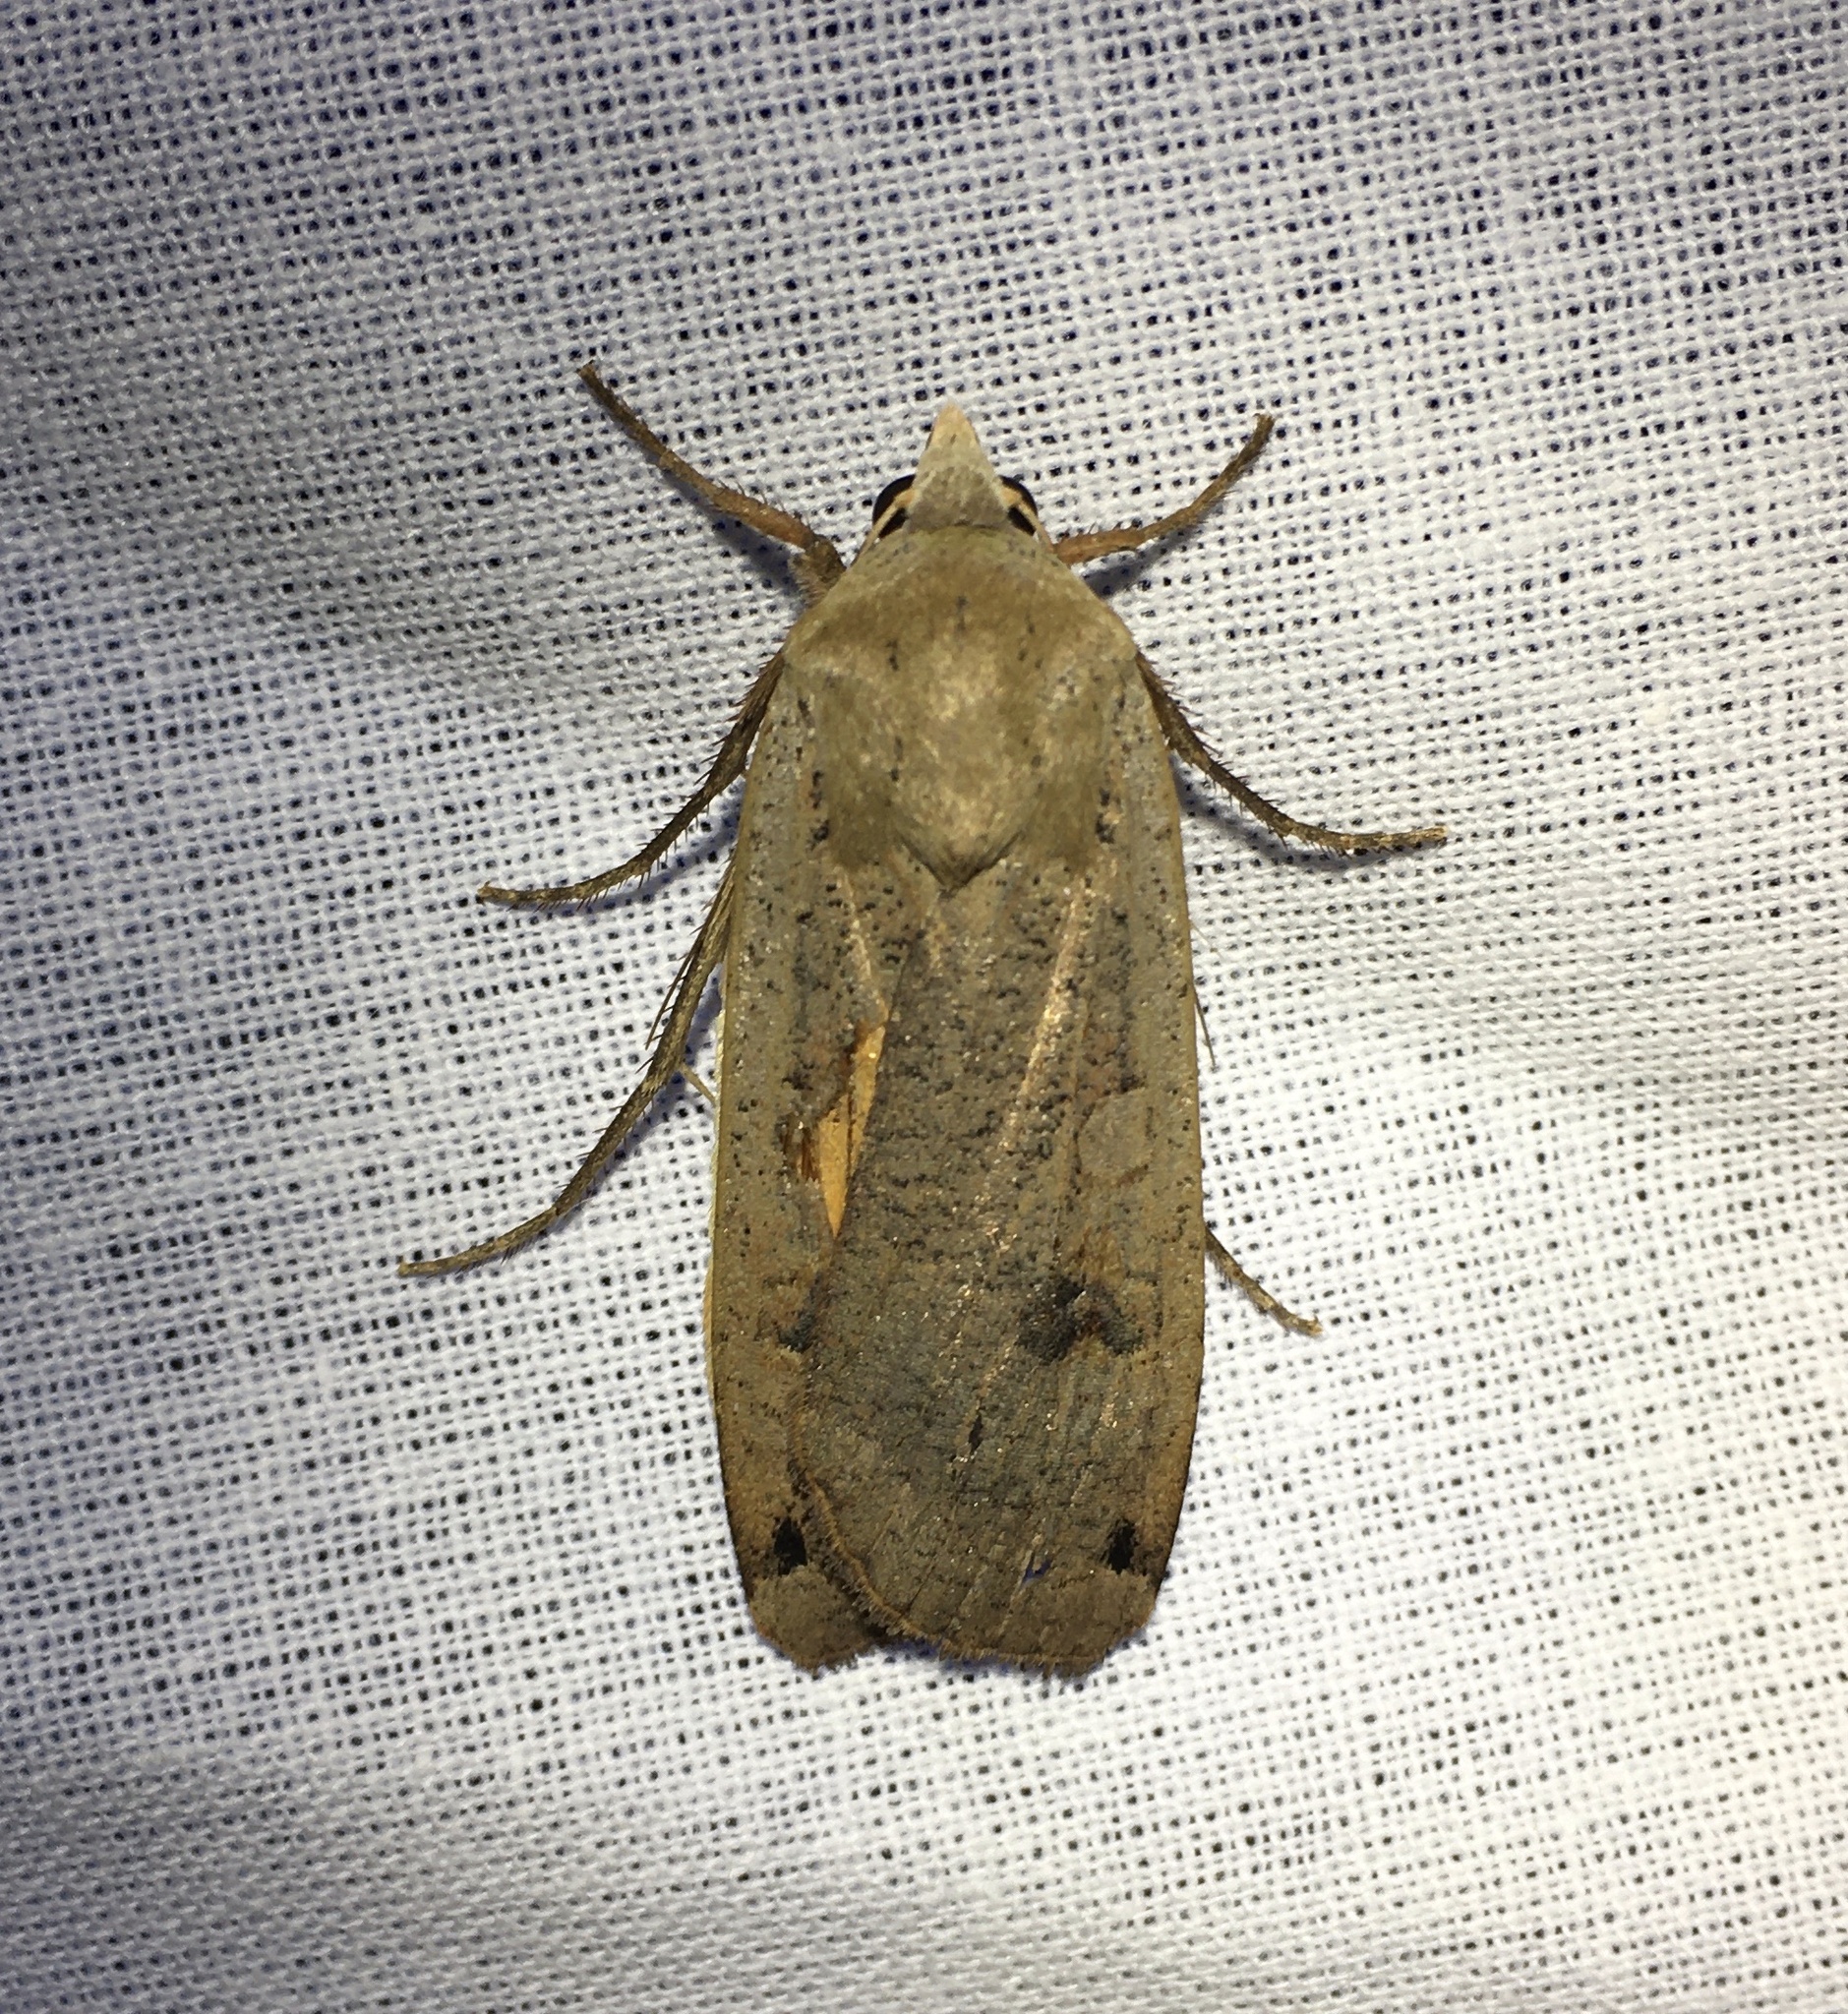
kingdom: Animalia
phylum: Arthropoda
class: Insecta
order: Lepidoptera
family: Noctuidae
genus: Noctua
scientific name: Noctua pronuba
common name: Large yellow underwing
